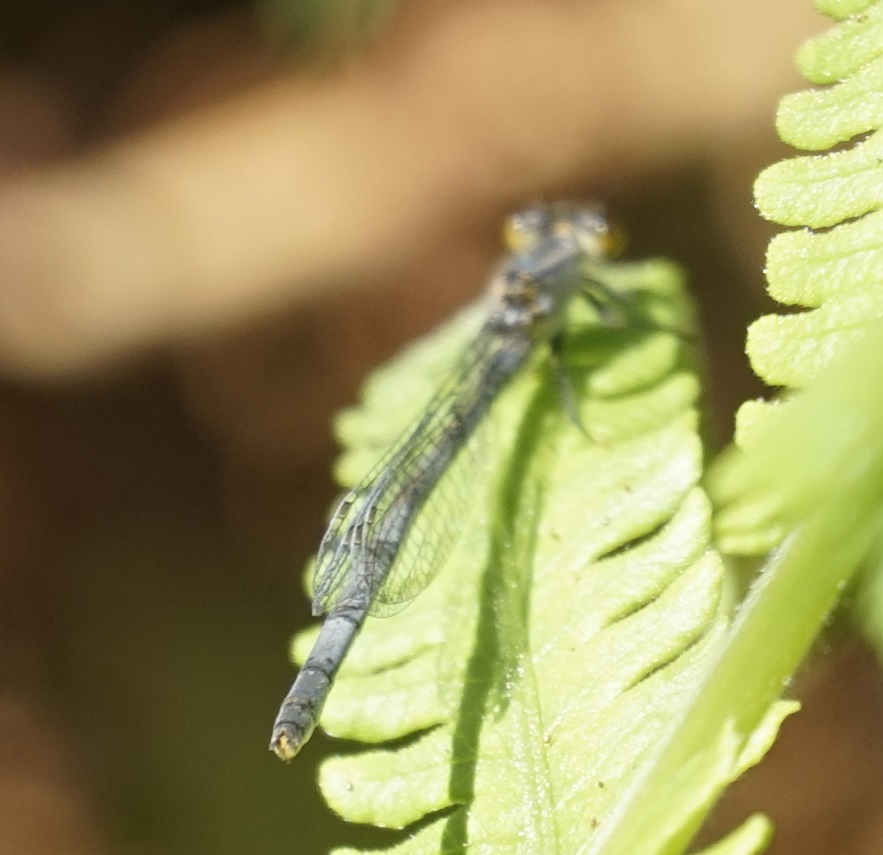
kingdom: Animalia
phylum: Arthropoda
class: Insecta
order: Odonata
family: Coenagrionidae
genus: Ischnura
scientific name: Ischnura heterosticta
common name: Common bluetail
